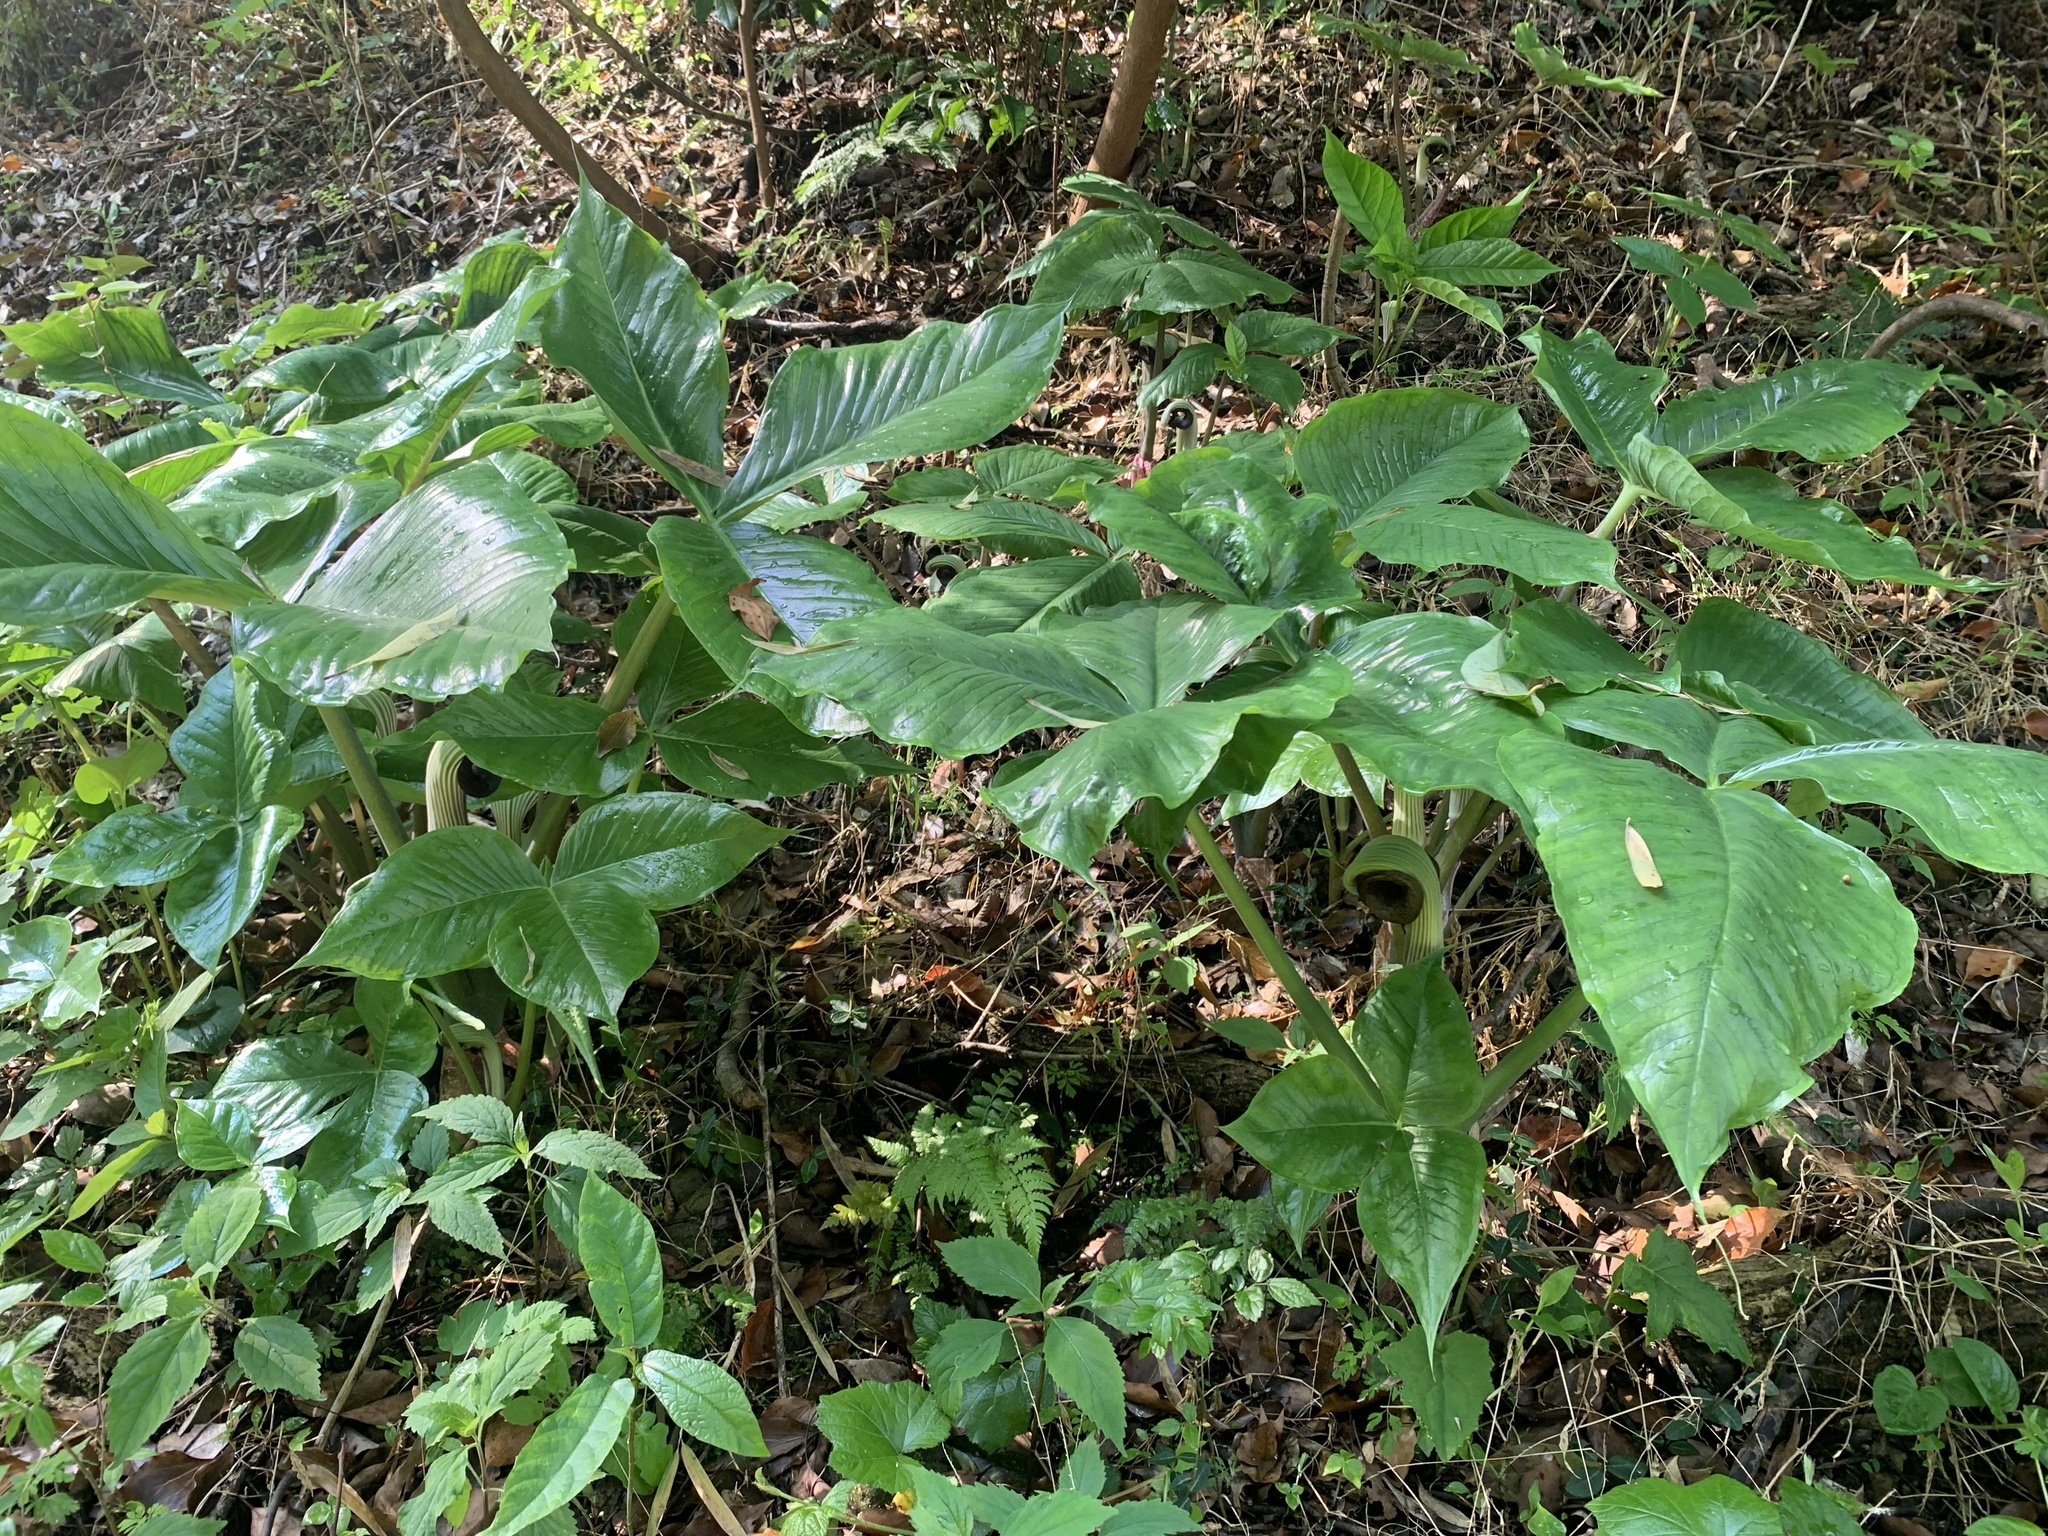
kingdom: Plantae
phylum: Tracheophyta
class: Liliopsida
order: Alismatales
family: Araceae
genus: Arisaema
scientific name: Arisaema ringens
